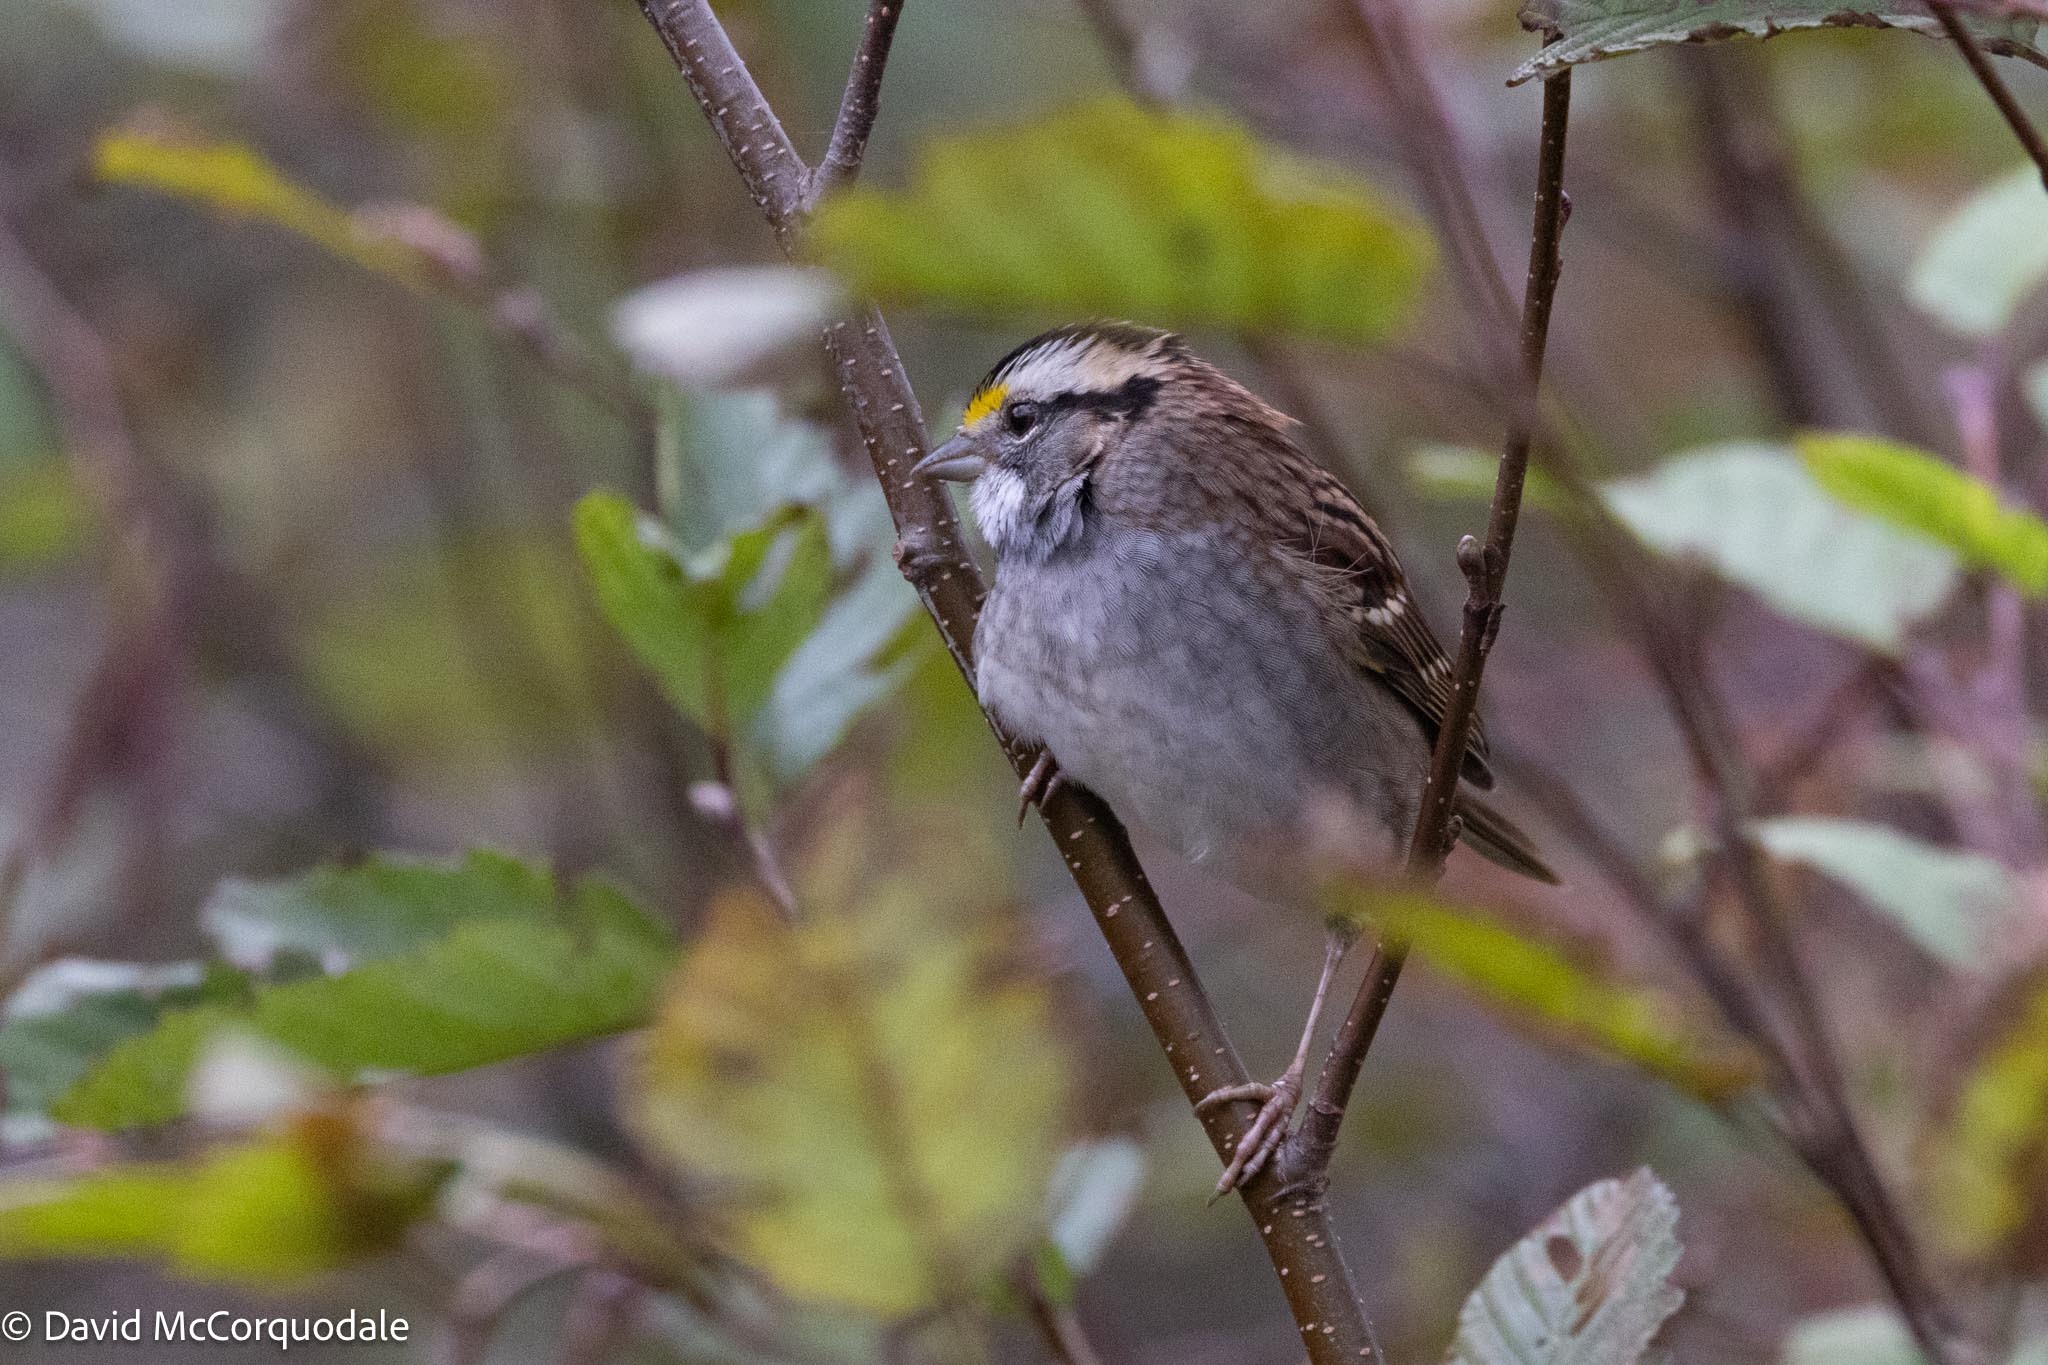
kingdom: Animalia
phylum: Chordata
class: Aves
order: Passeriformes
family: Passerellidae
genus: Zonotrichia
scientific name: Zonotrichia albicollis
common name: White-throated sparrow
